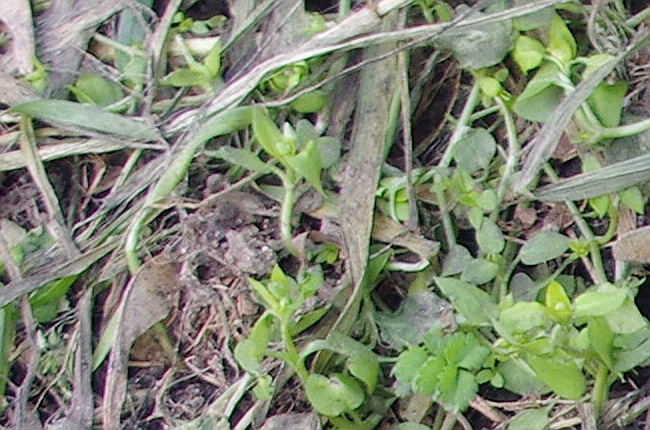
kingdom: Plantae
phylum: Tracheophyta
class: Magnoliopsida
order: Caryophyllales
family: Caryophyllaceae
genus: Stellaria
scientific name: Stellaria media
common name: Common chickweed
